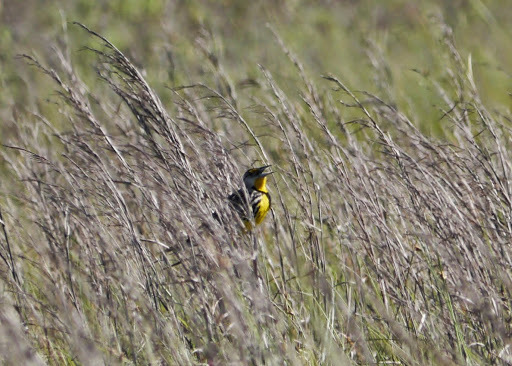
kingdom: Animalia
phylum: Chordata
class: Aves
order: Passeriformes
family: Icteridae
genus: Sturnella
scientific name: Sturnella magna
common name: Eastern meadowlark
